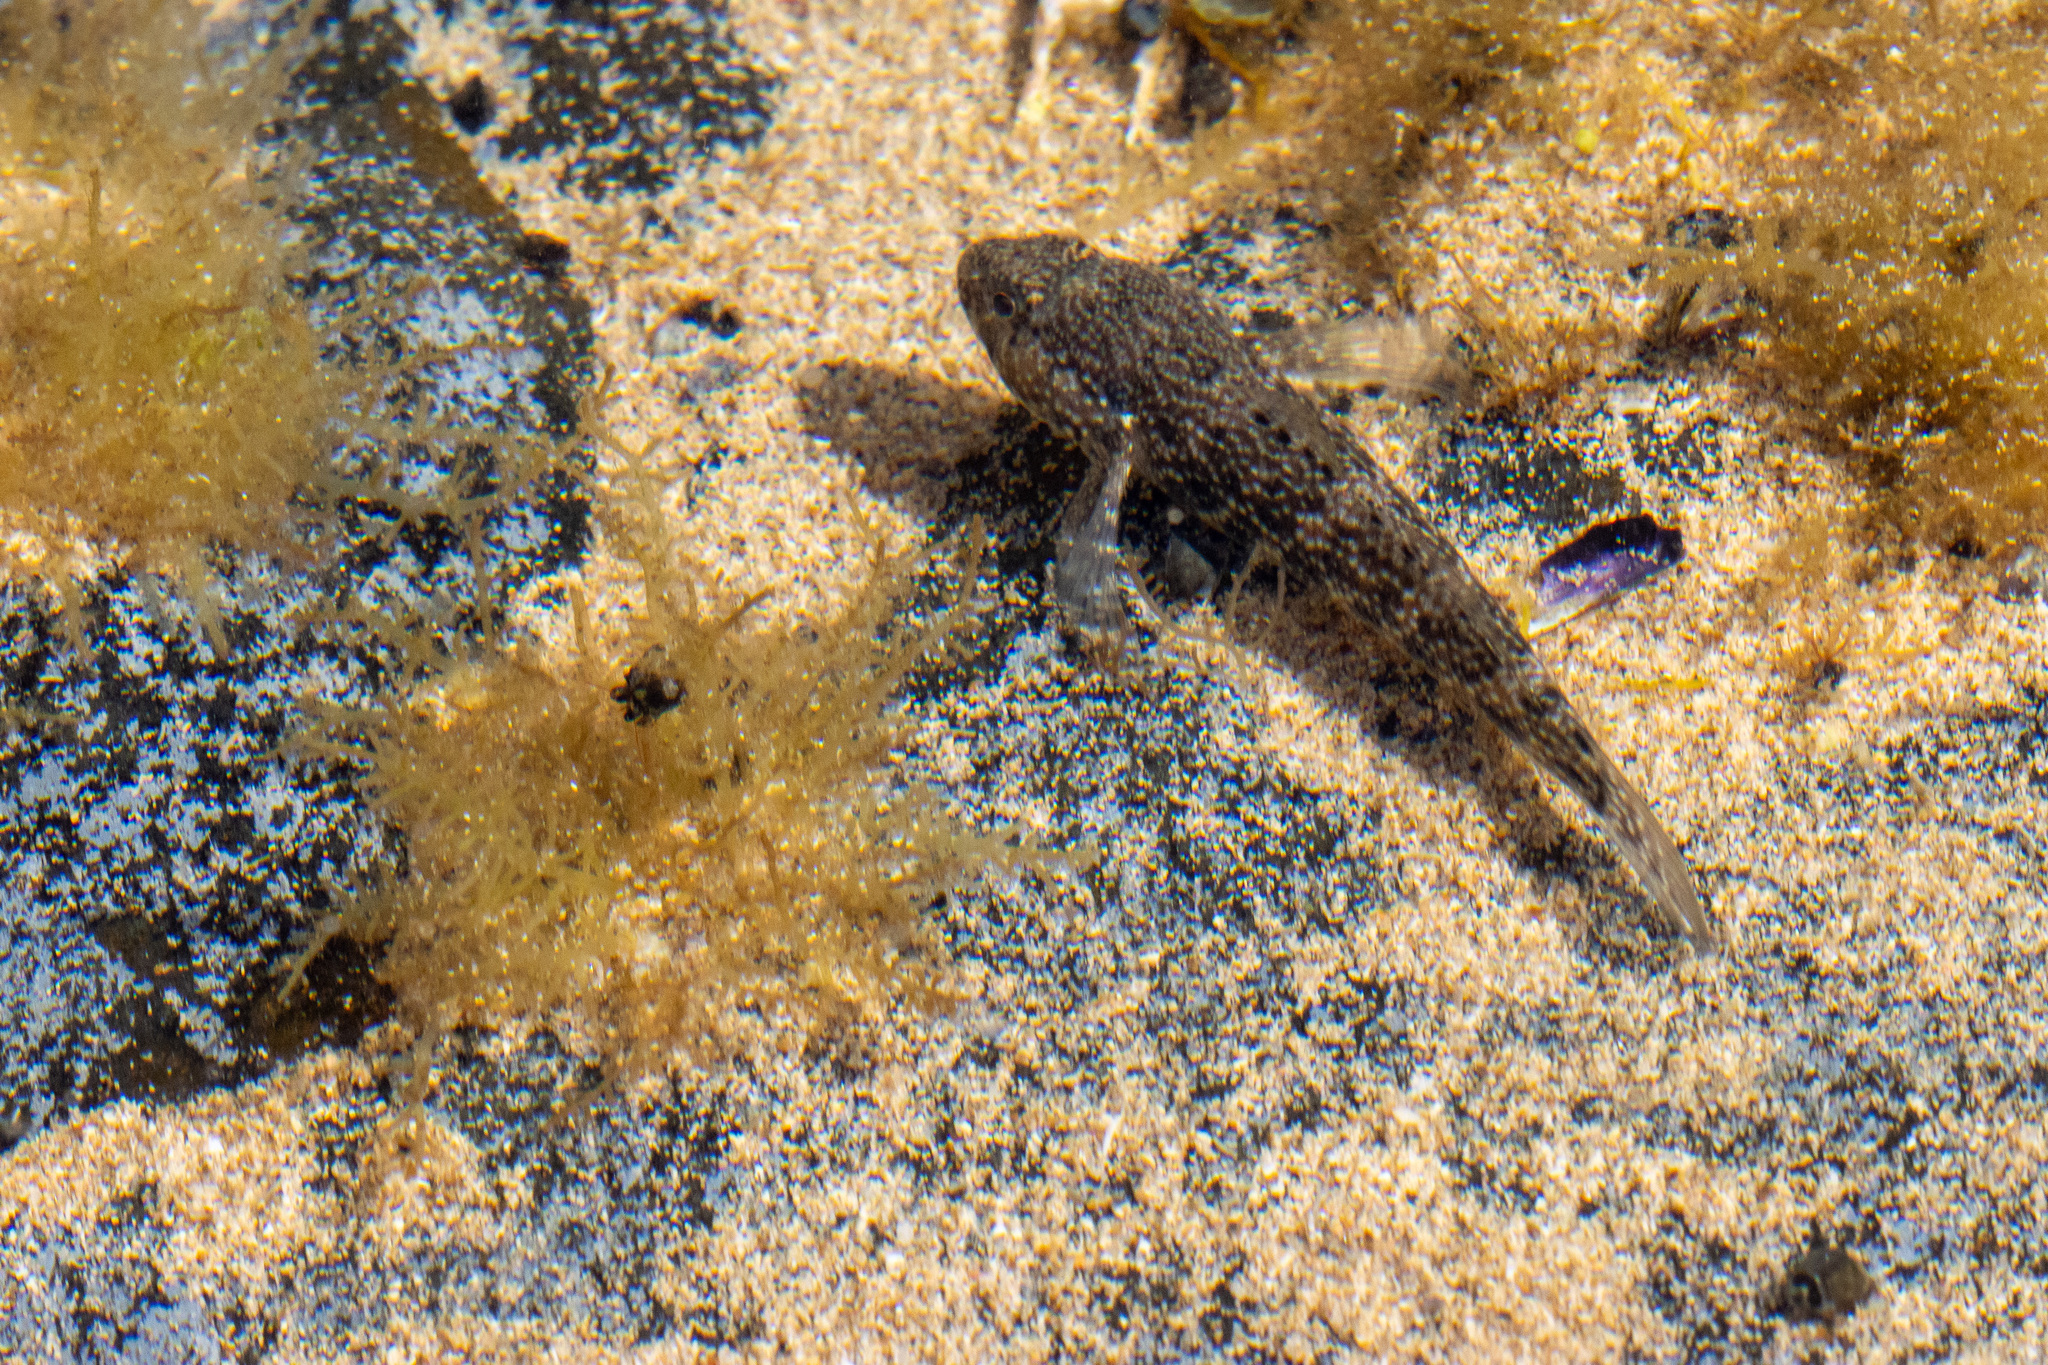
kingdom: Animalia
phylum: Chordata
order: Perciformes
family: Gobiidae
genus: Bathygobius
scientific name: Bathygobius brasiliensis
